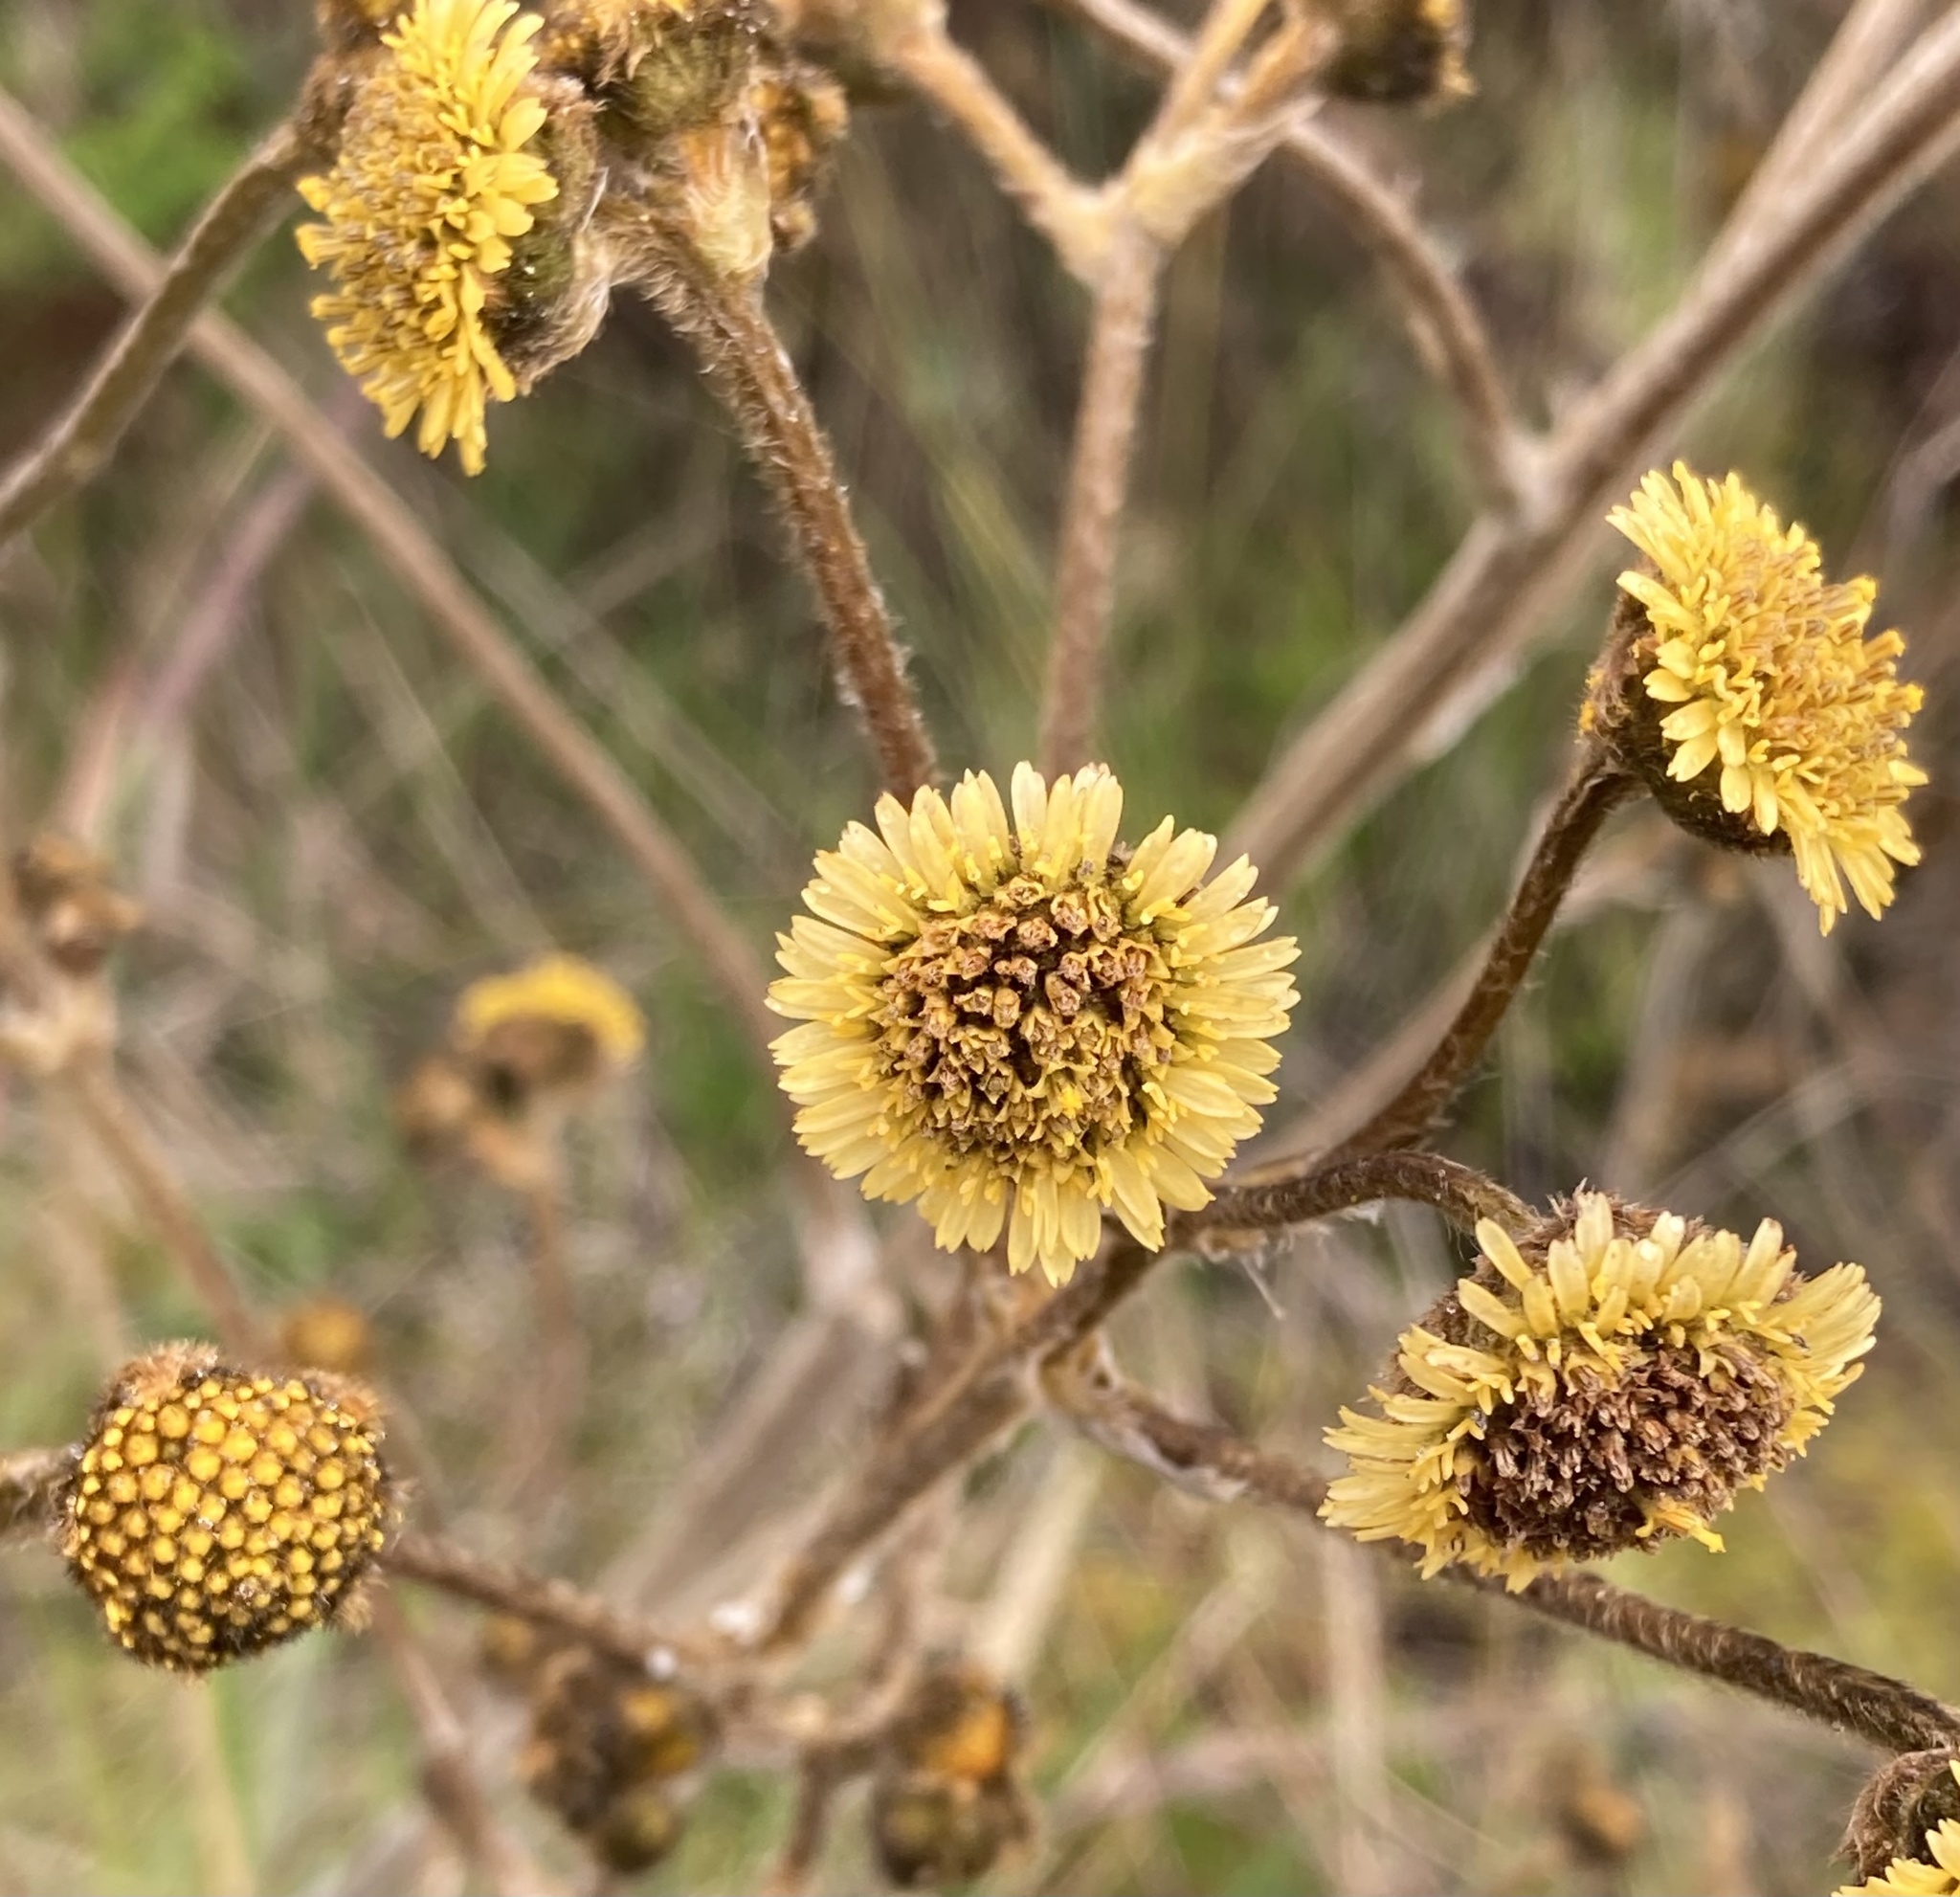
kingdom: Plantae
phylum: Tracheophyta
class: Magnoliopsida
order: Asterales
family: Asteraceae
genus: Espeletia
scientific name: Espeletia argentea
